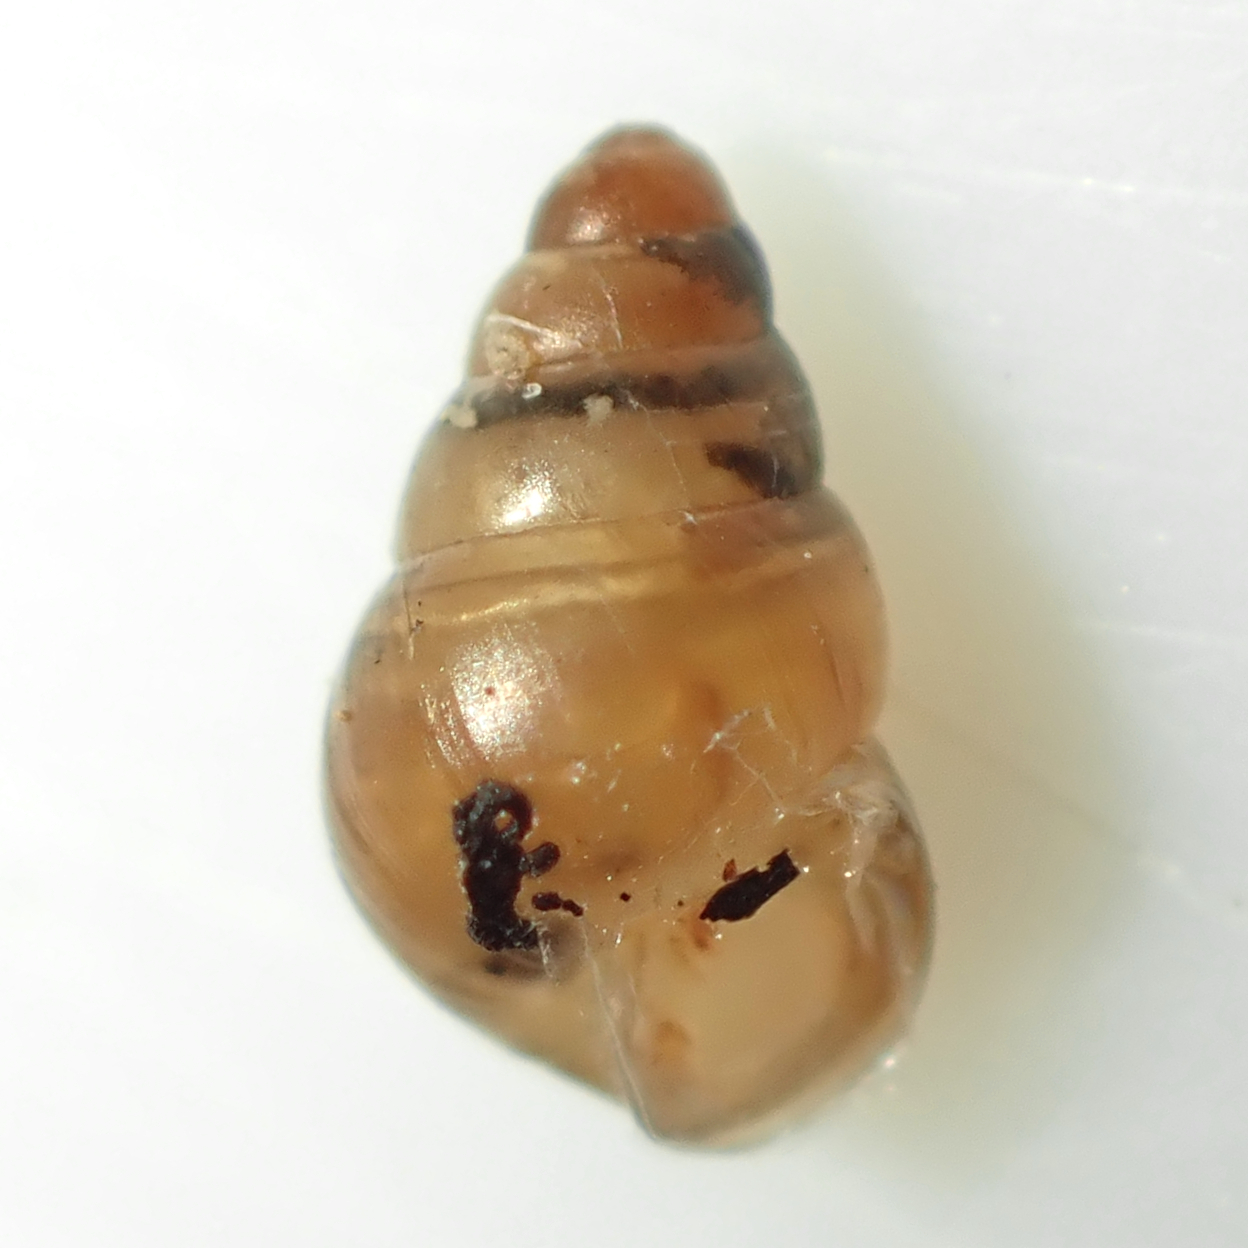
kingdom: Animalia
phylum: Mollusca
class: Gastropoda
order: Stylommatophora
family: Achatinellidae
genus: Tornatellides
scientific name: Tornatellides subperforatus
